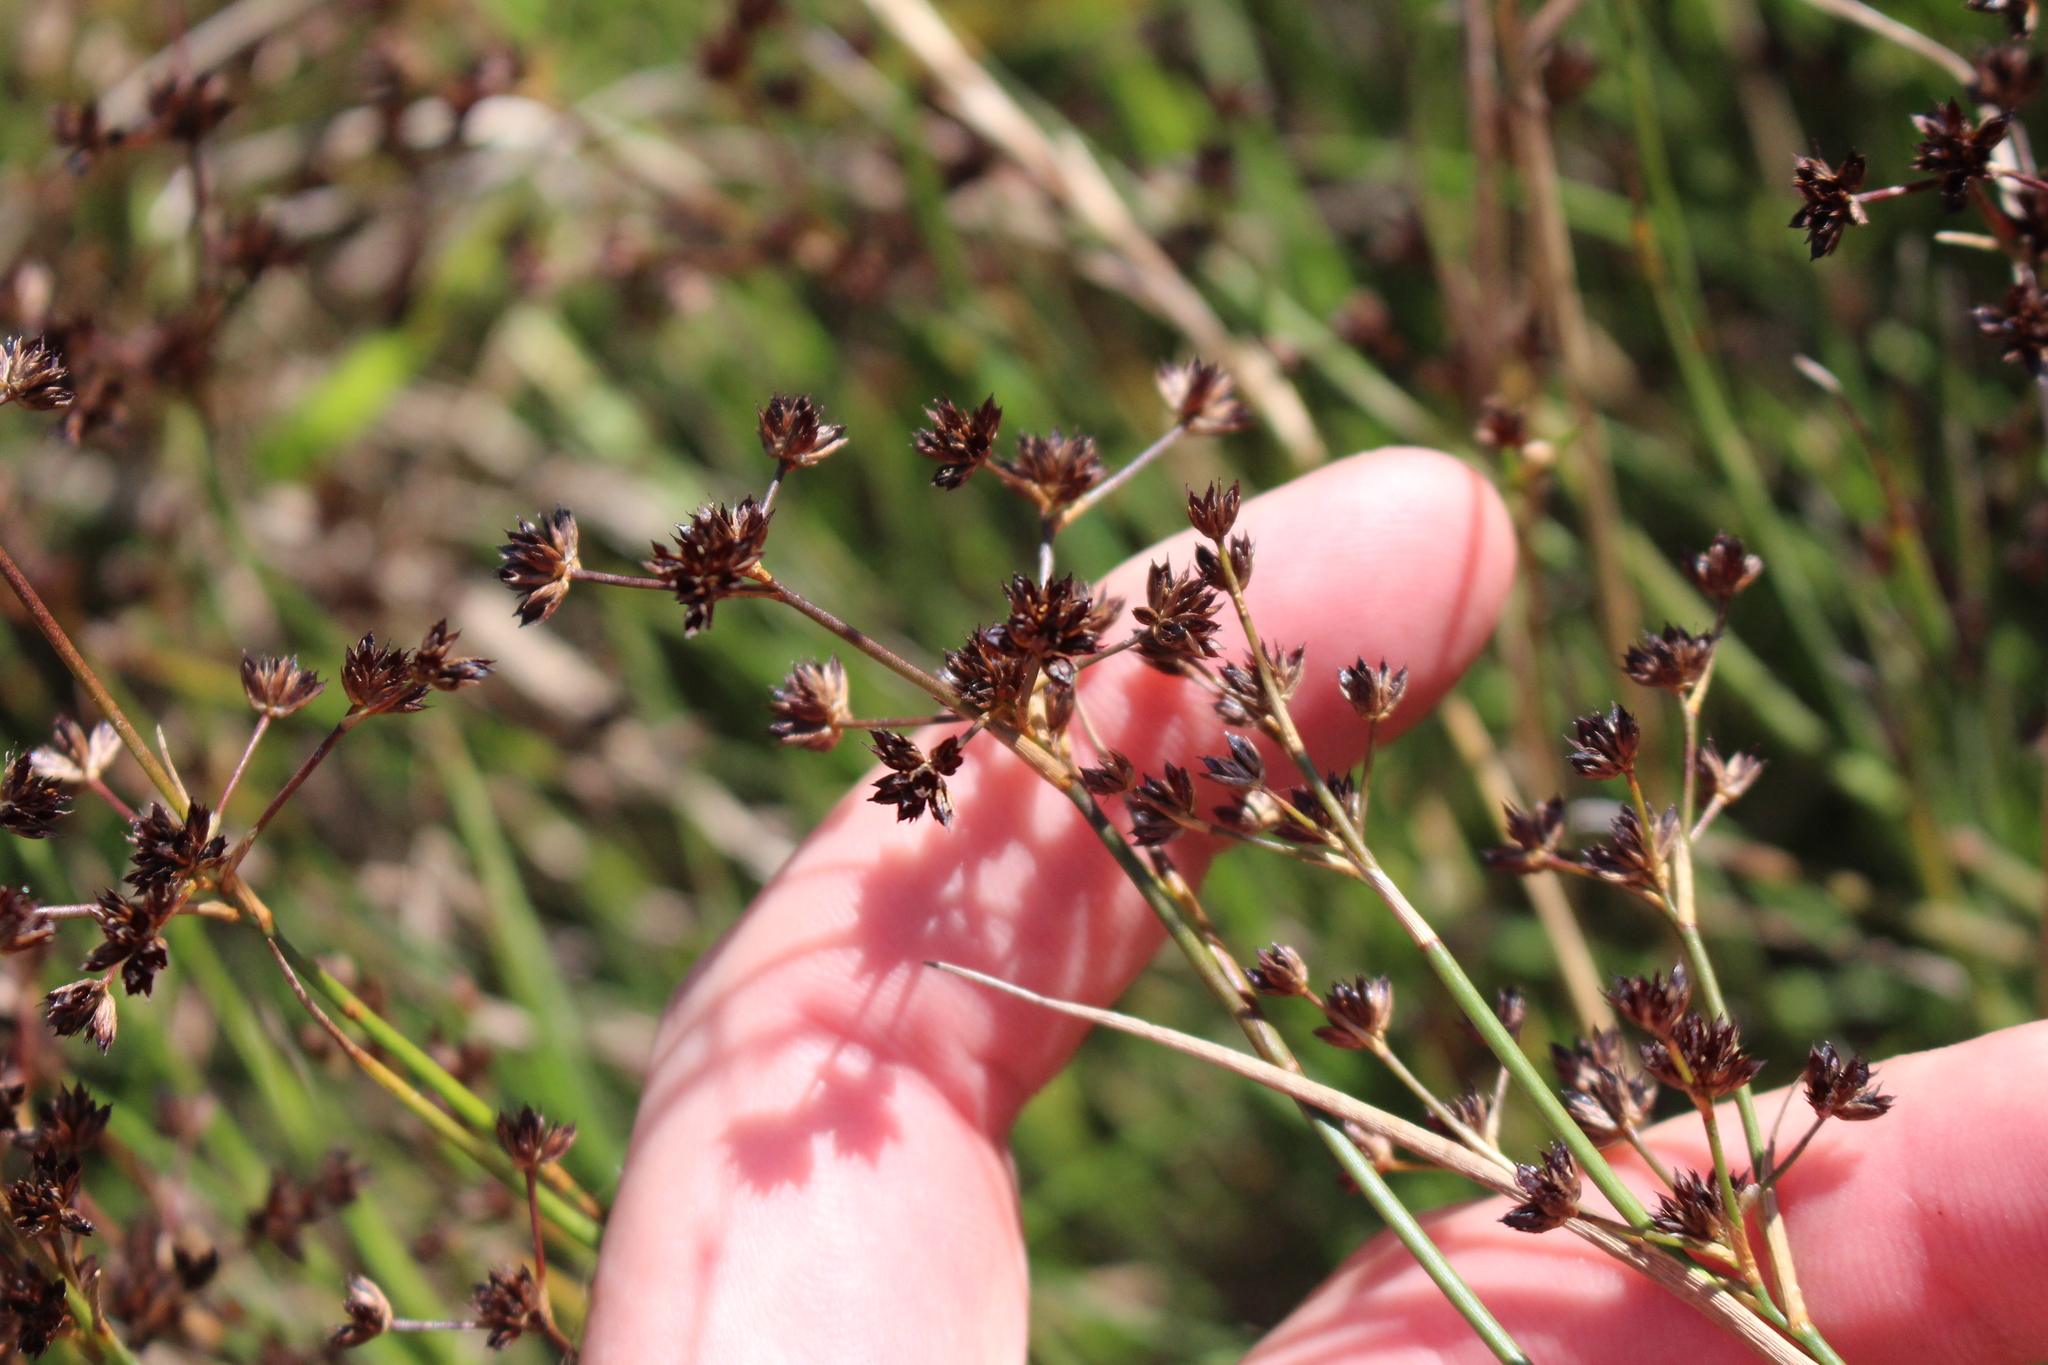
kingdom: Plantae
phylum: Tracheophyta
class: Liliopsida
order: Poales
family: Juncaceae
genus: Juncus
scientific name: Juncus articulatus
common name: Jointed rush
